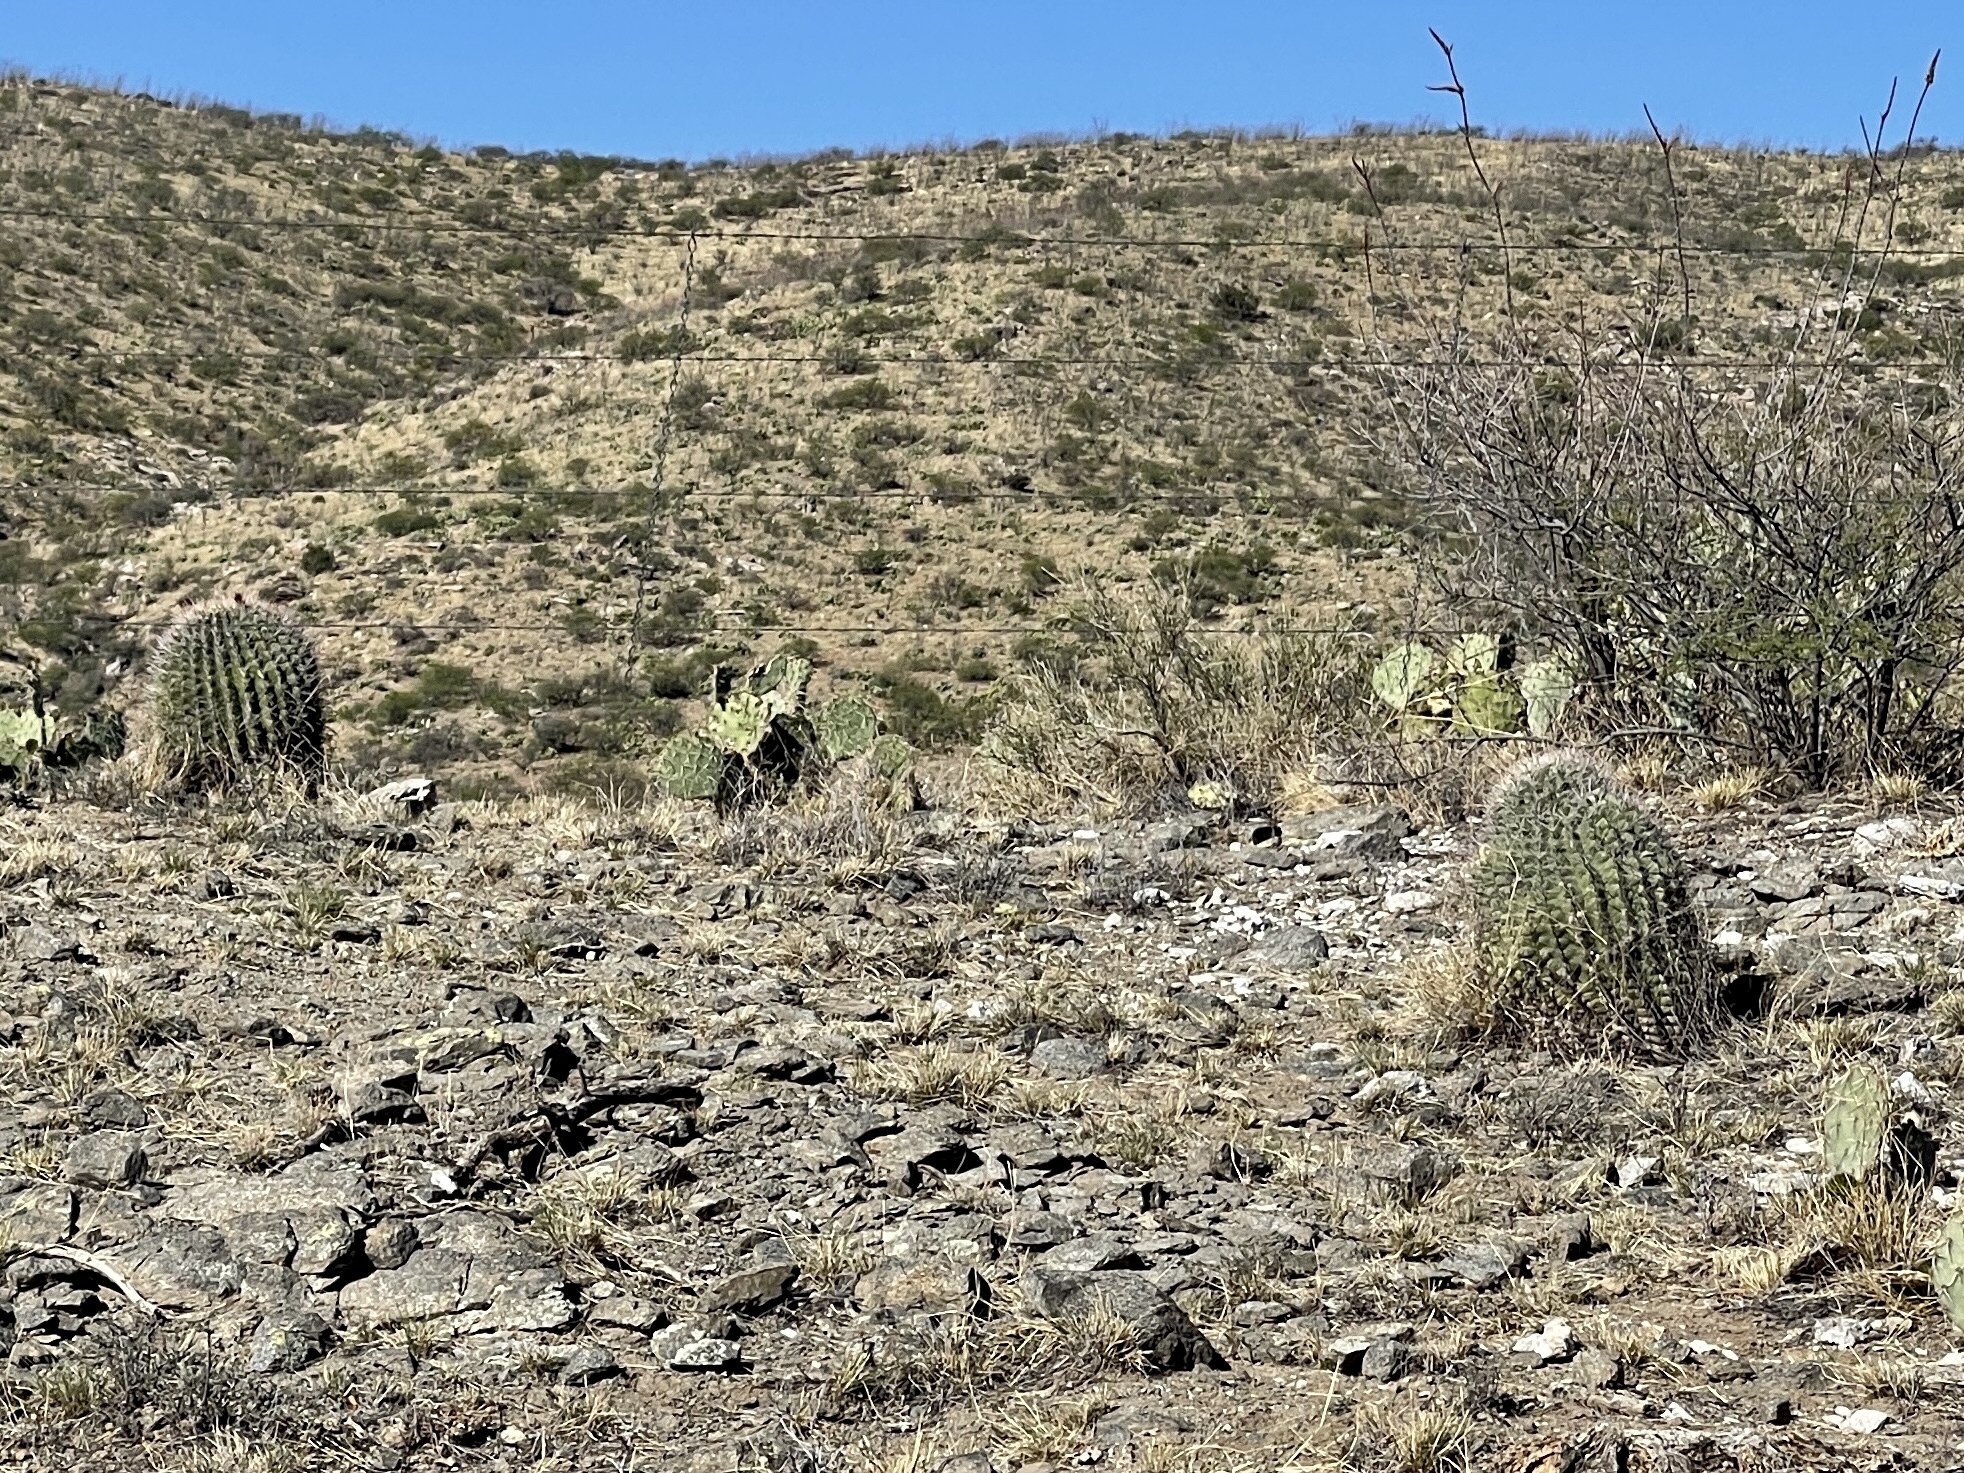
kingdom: Plantae
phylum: Tracheophyta
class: Magnoliopsida
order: Caryophyllales
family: Cactaceae
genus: Ferocactus
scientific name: Ferocactus wislizeni
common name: Candy barrel cactus
